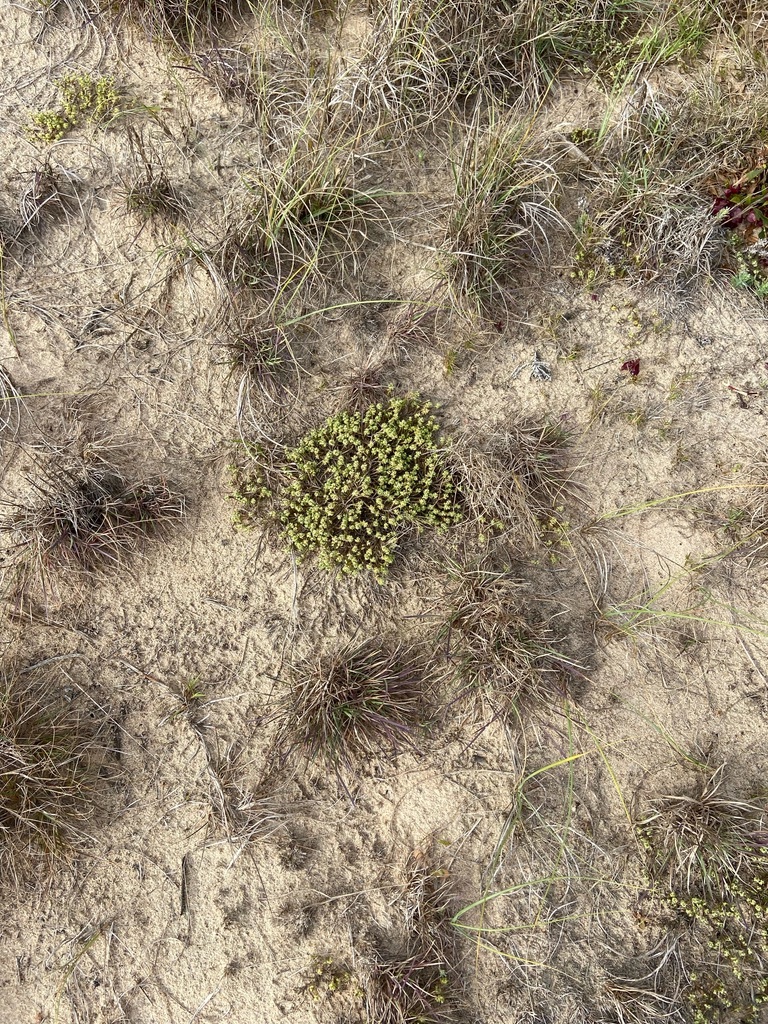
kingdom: Plantae
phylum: Tracheophyta
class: Magnoliopsida
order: Caryophyllales
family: Caryophyllaceae
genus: Cardionema
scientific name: Cardionema ramosissima
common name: Sandcarpet
